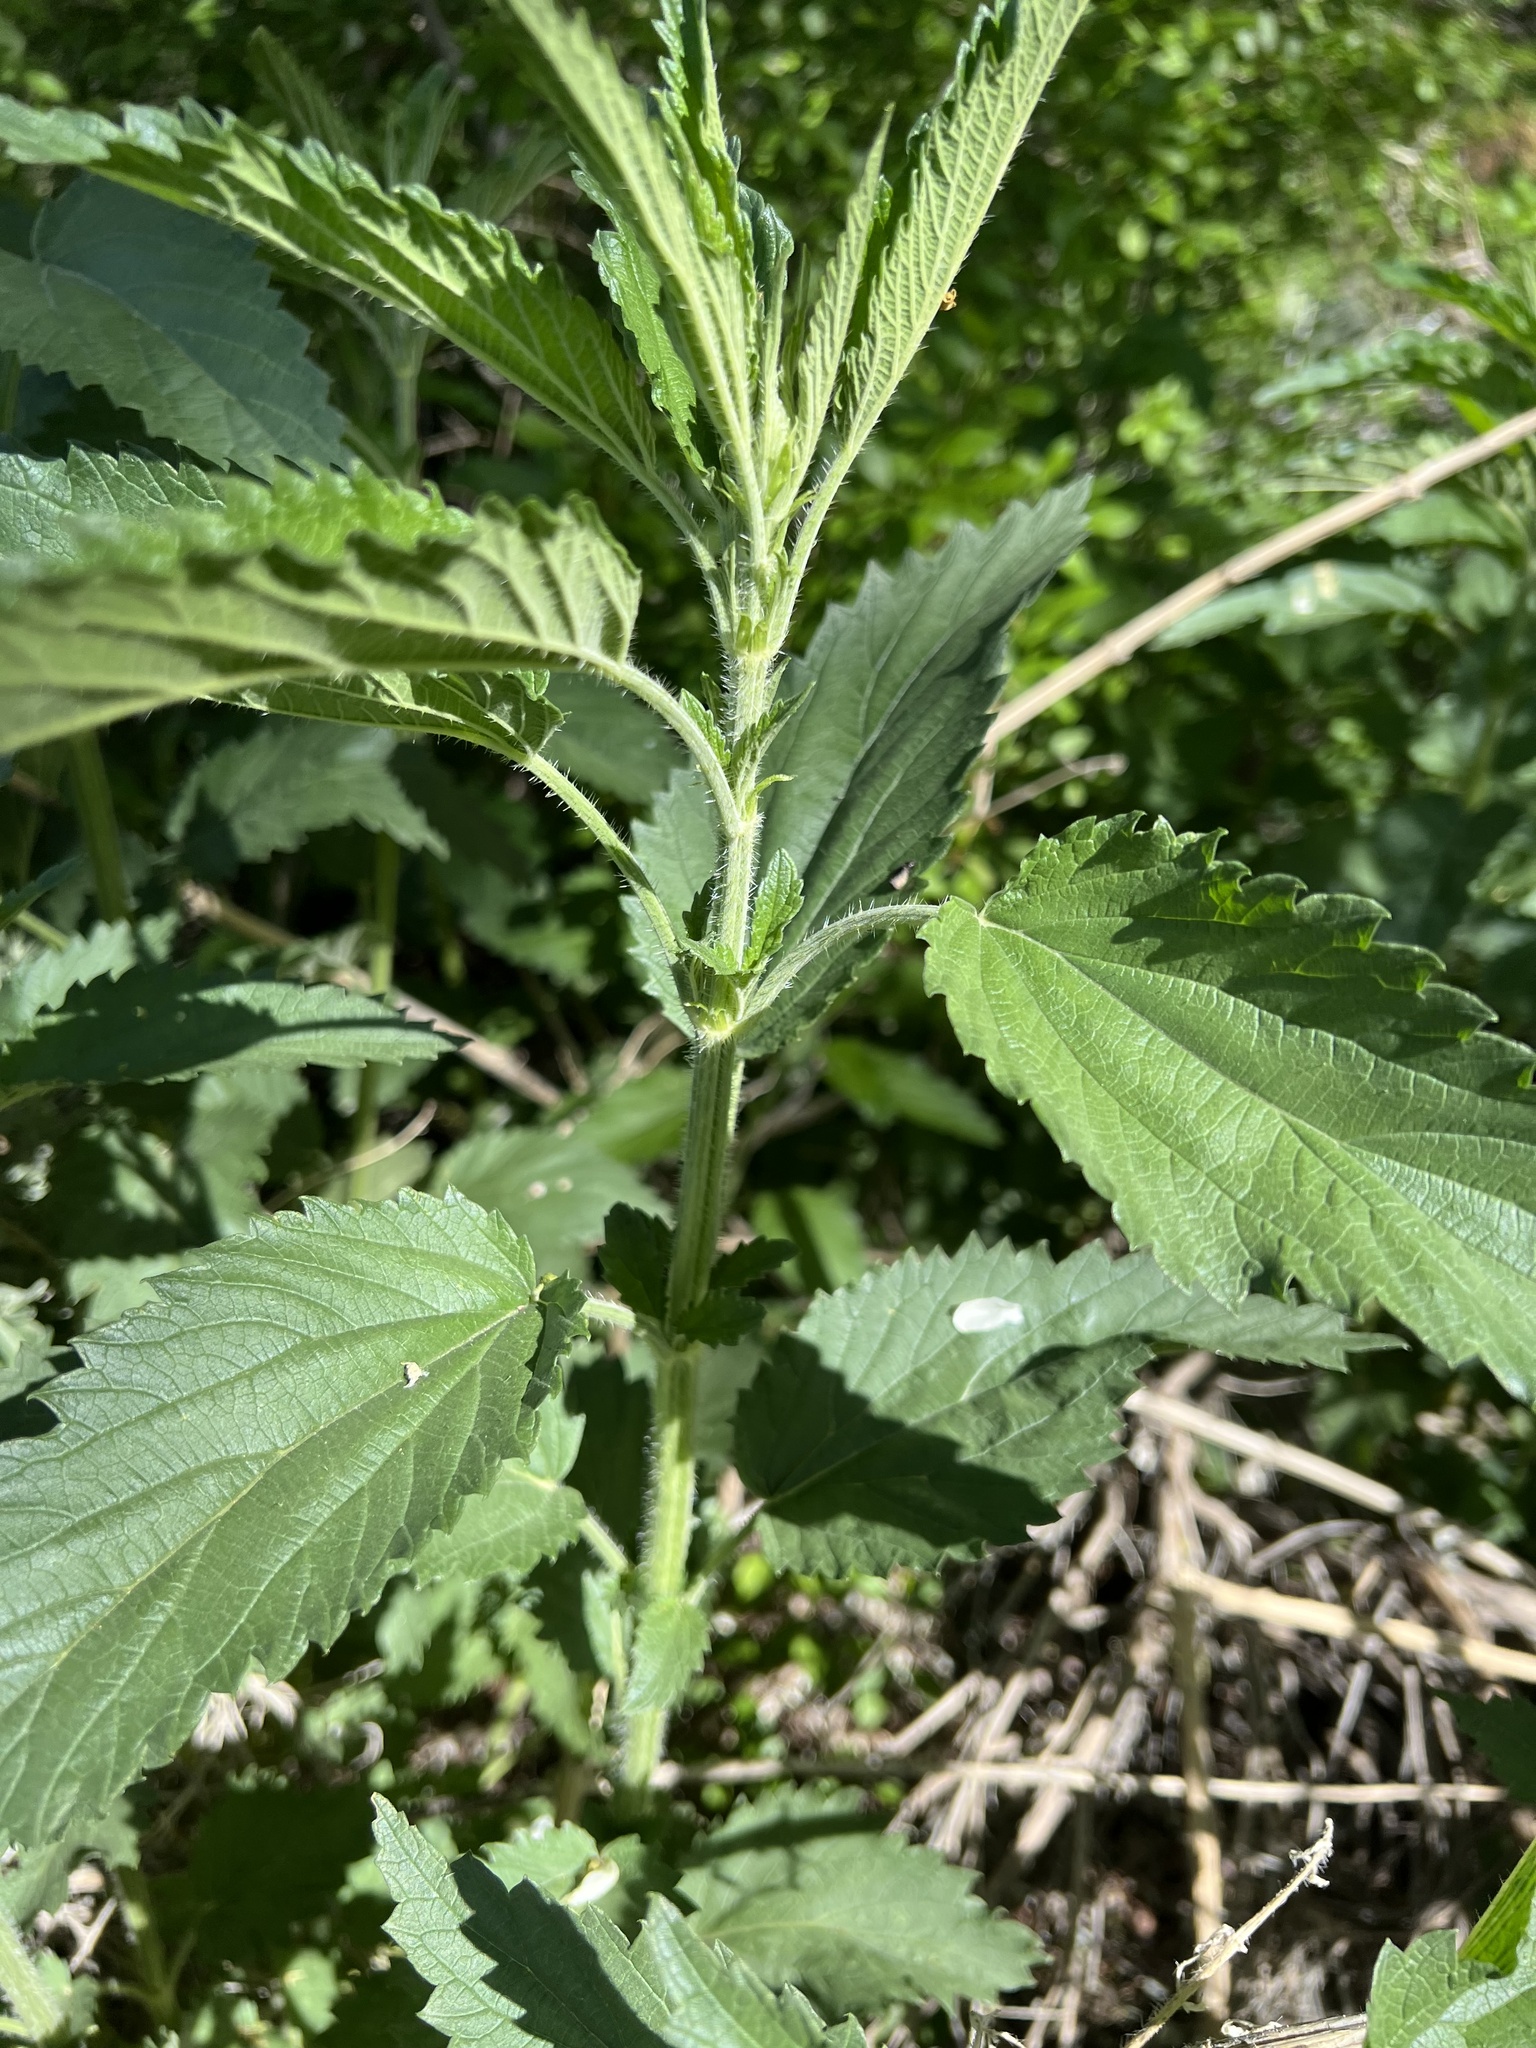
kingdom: Plantae
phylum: Tracheophyta
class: Magnoliopsida
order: Rosales
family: Urticaceae
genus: Urtica
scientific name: Urtica gracilis
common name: Slender stinging nettle
